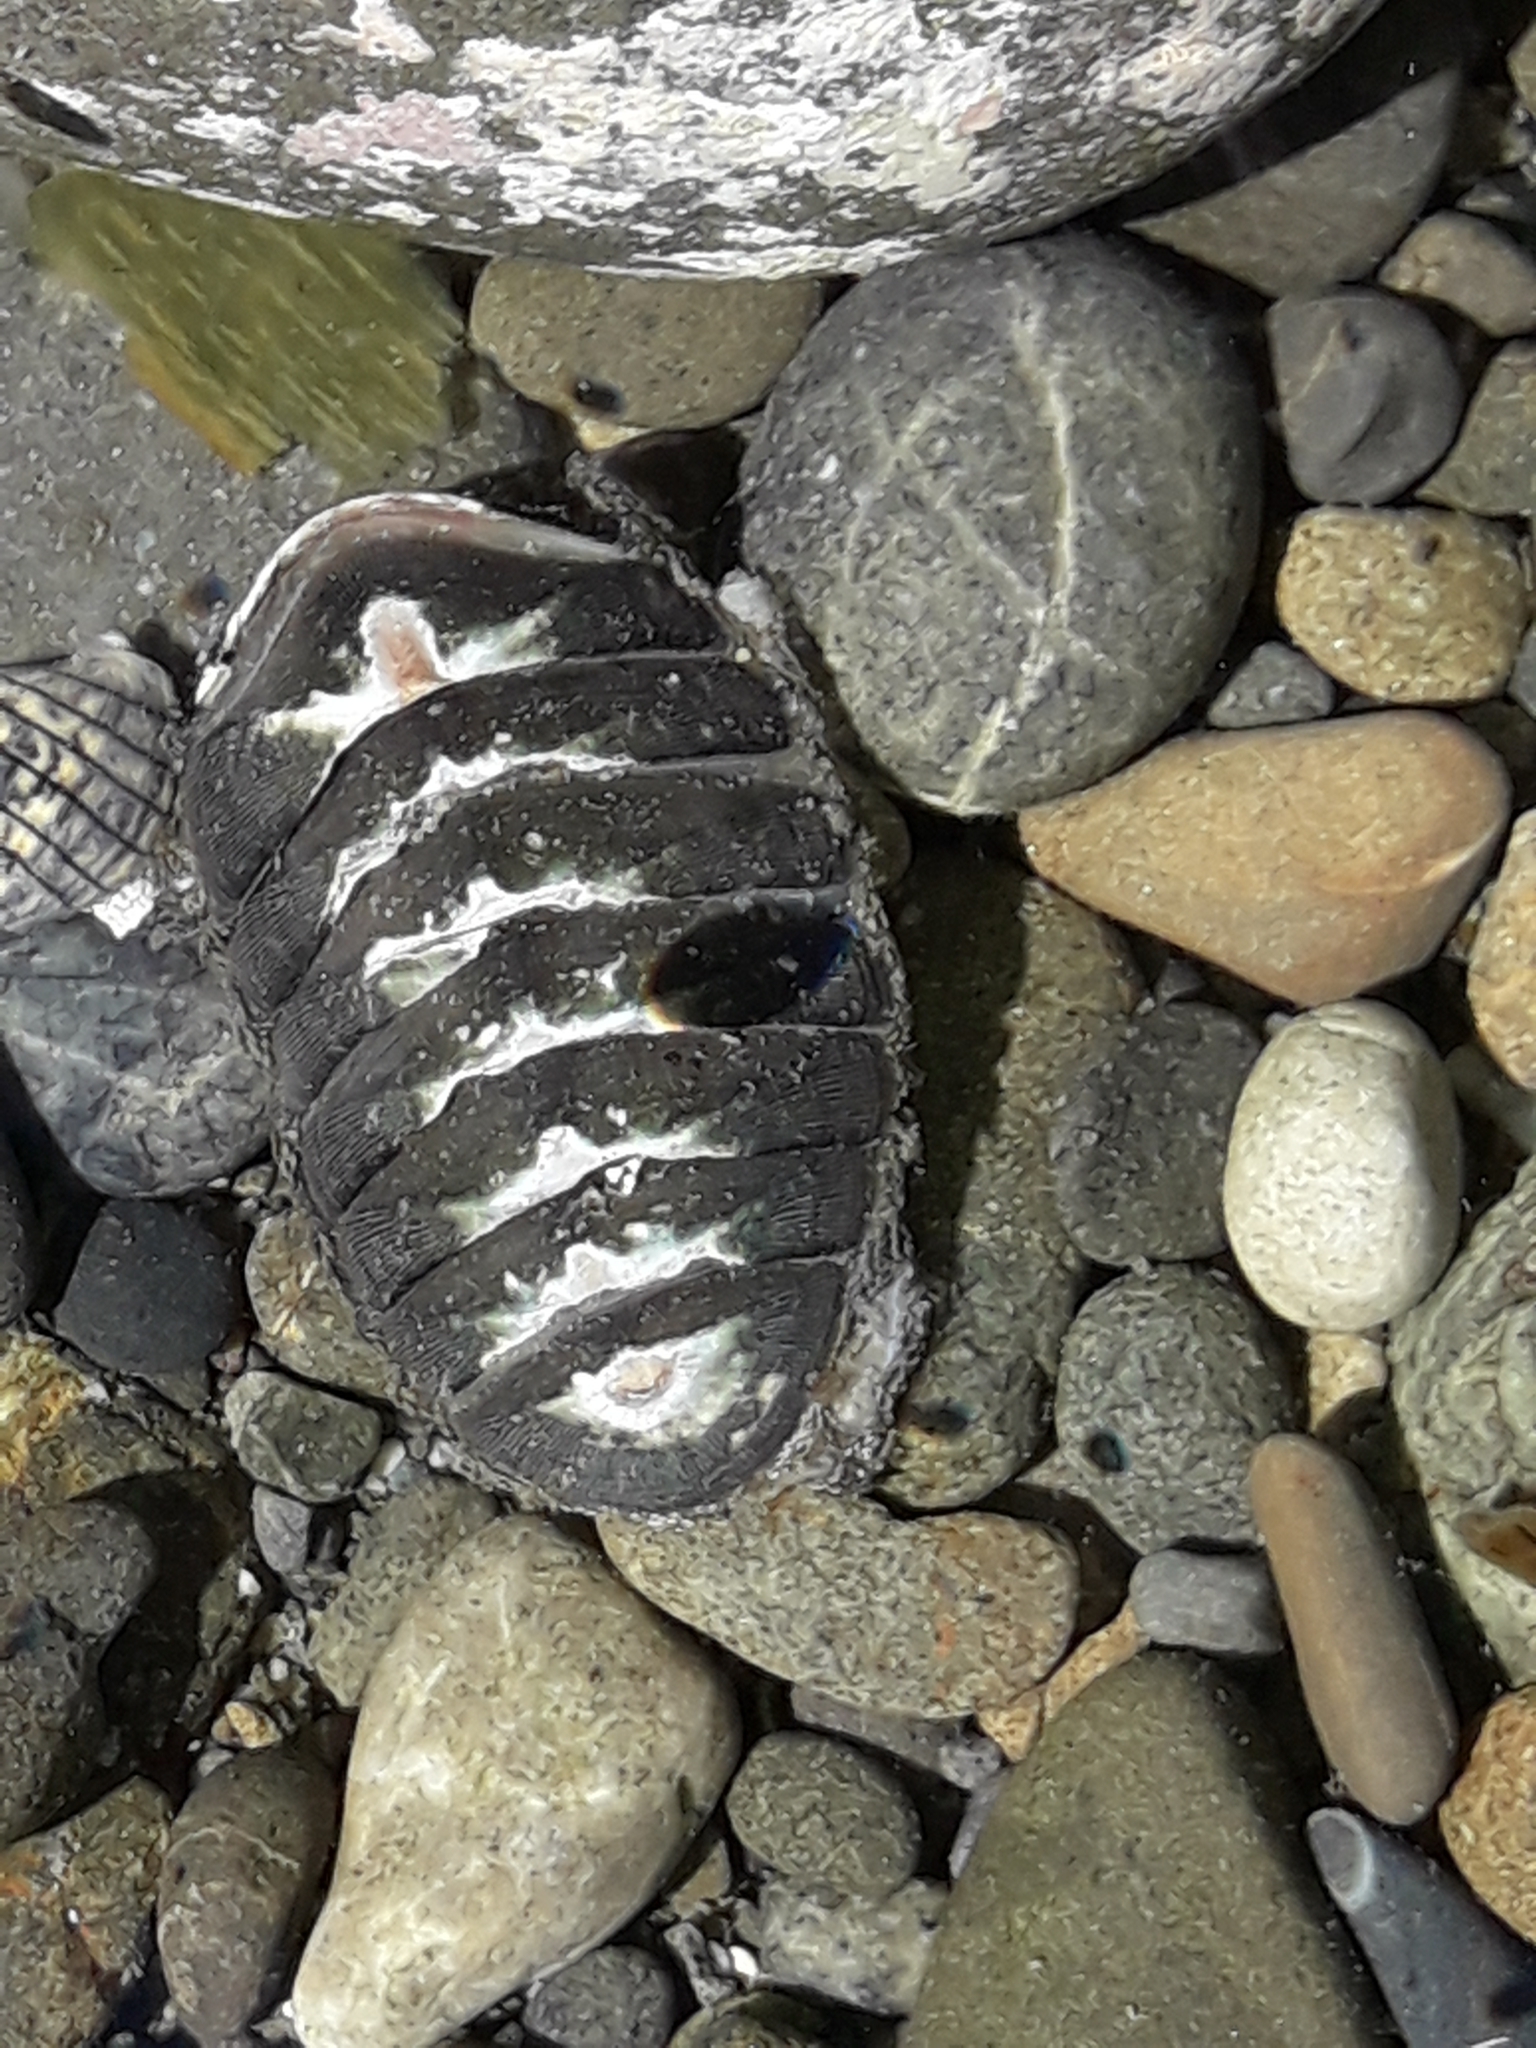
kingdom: Animalia
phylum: Mollusca
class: Polyplacophora
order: Chitonida
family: Chitonidae
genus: Chiton
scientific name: Chiton glaucus
